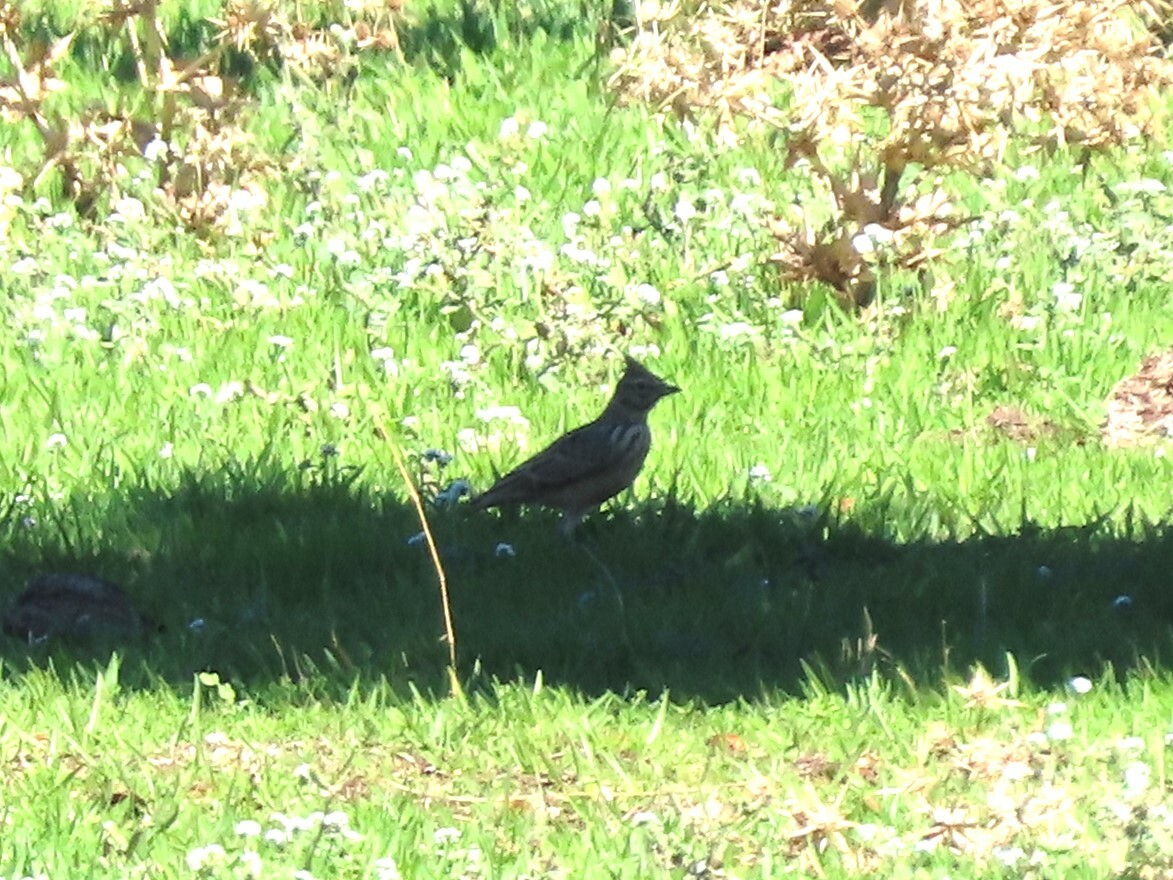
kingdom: Animalia
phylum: Chordata
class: Aves
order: Passeriformes
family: Alaudidae
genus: Galerida
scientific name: Galerida theklae
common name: Thekla lark
